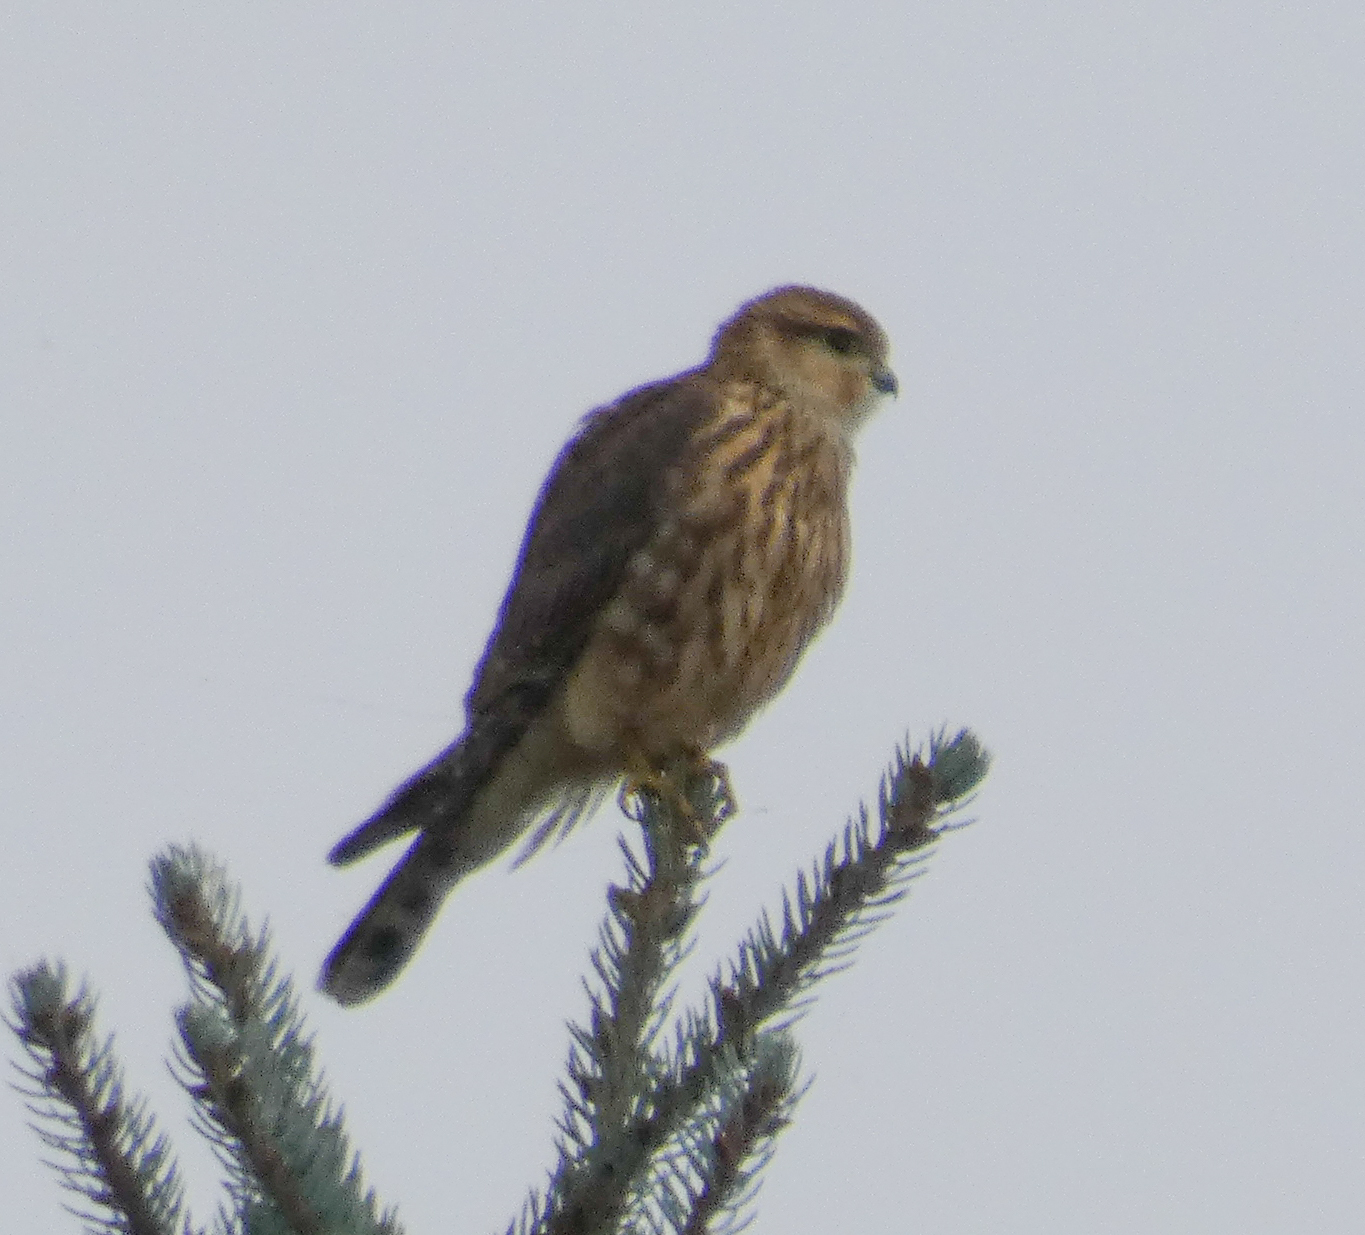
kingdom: Animalia
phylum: Chordata
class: Aves
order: Falconiformes
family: Falconidae
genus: Falco
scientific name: Falco columbarius
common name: Merlin
